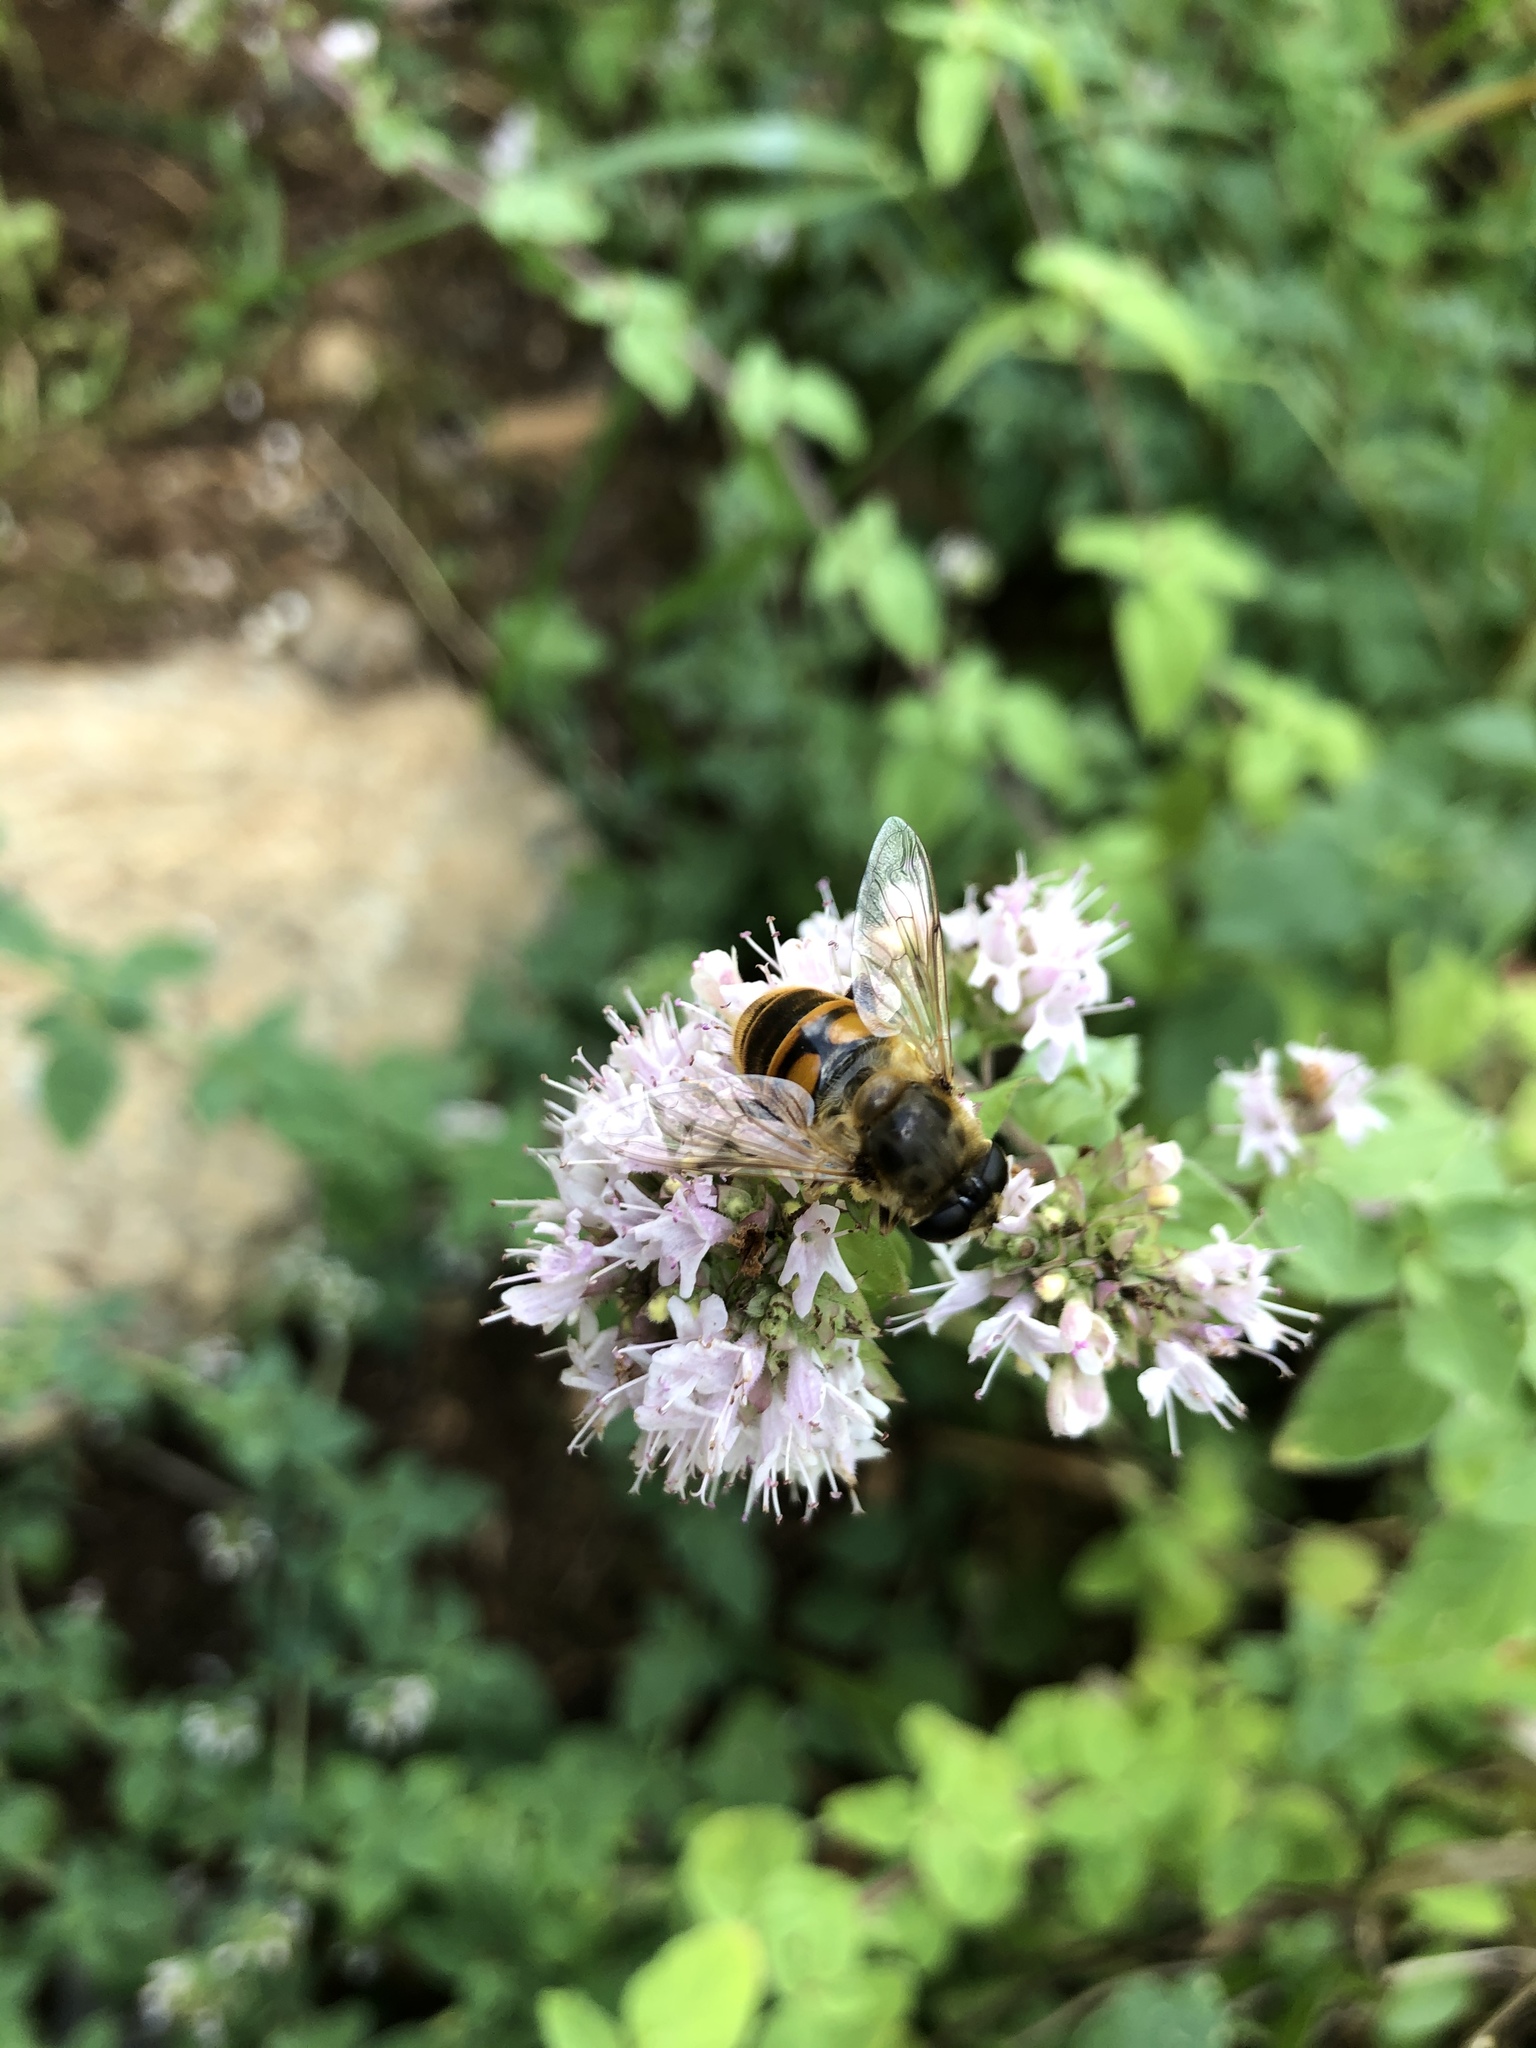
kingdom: Animalia
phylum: Arthropoda
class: Insecta
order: Diptera
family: Syrphidae
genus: Eristalis
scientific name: Eristalis tenax
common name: Drone fly
